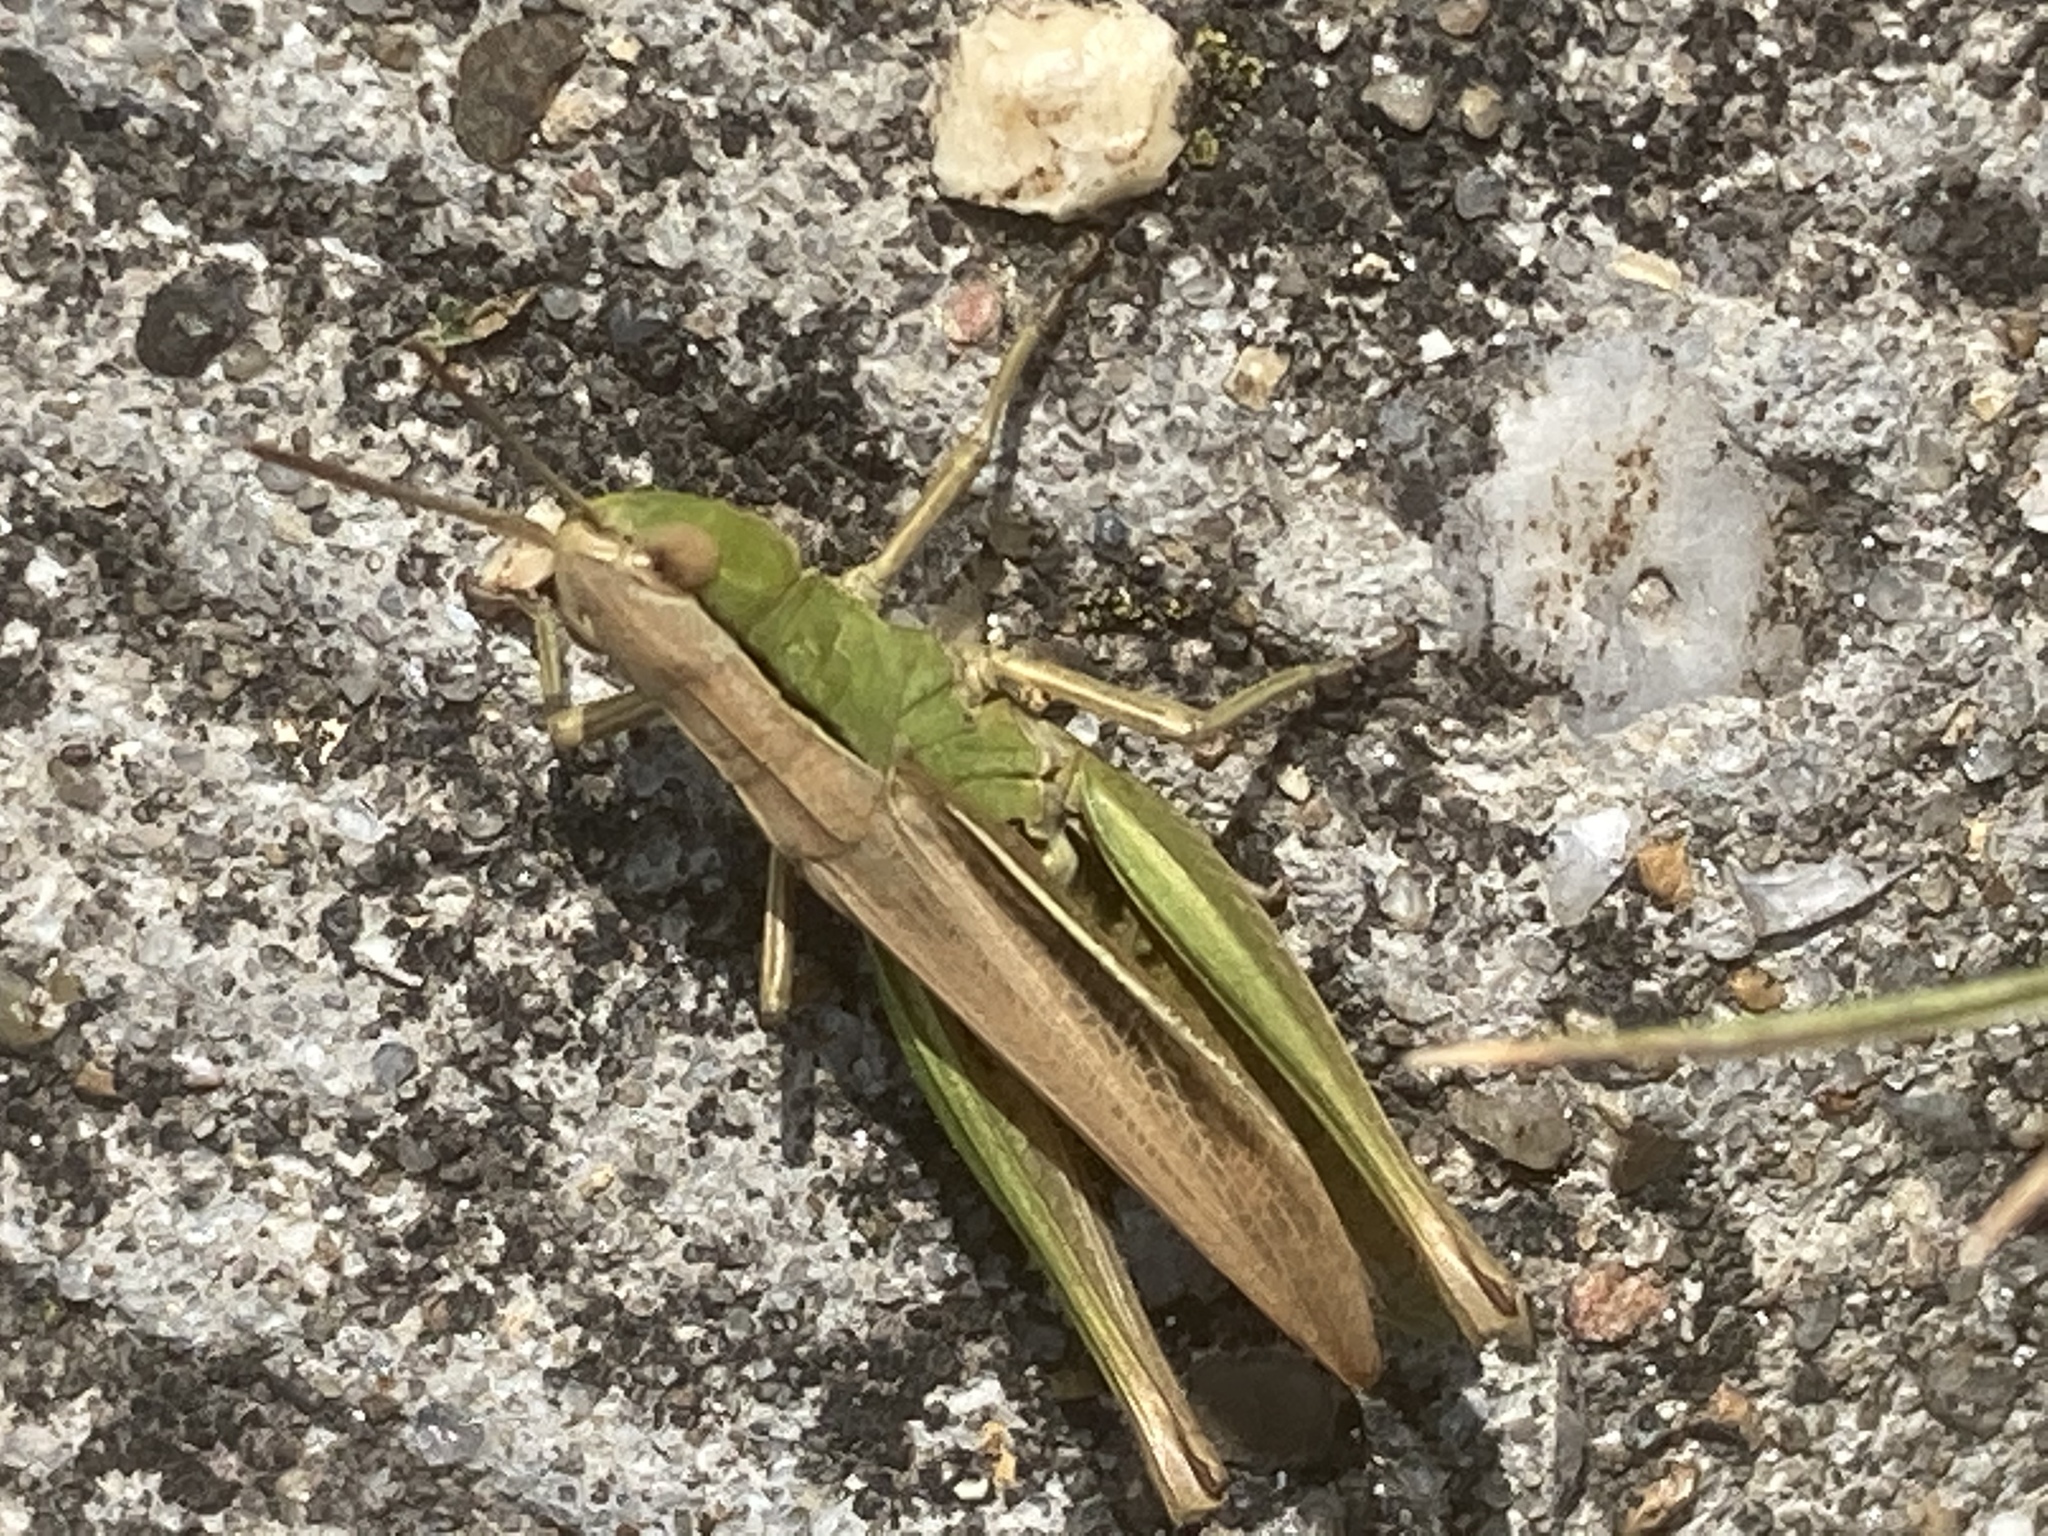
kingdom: Animalia
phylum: Arthropoda
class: Insecta
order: Orthoptera
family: Acrididae
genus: Chorthippus
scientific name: Chorthippus albomarginatus
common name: Lesser marsh grasshopper
